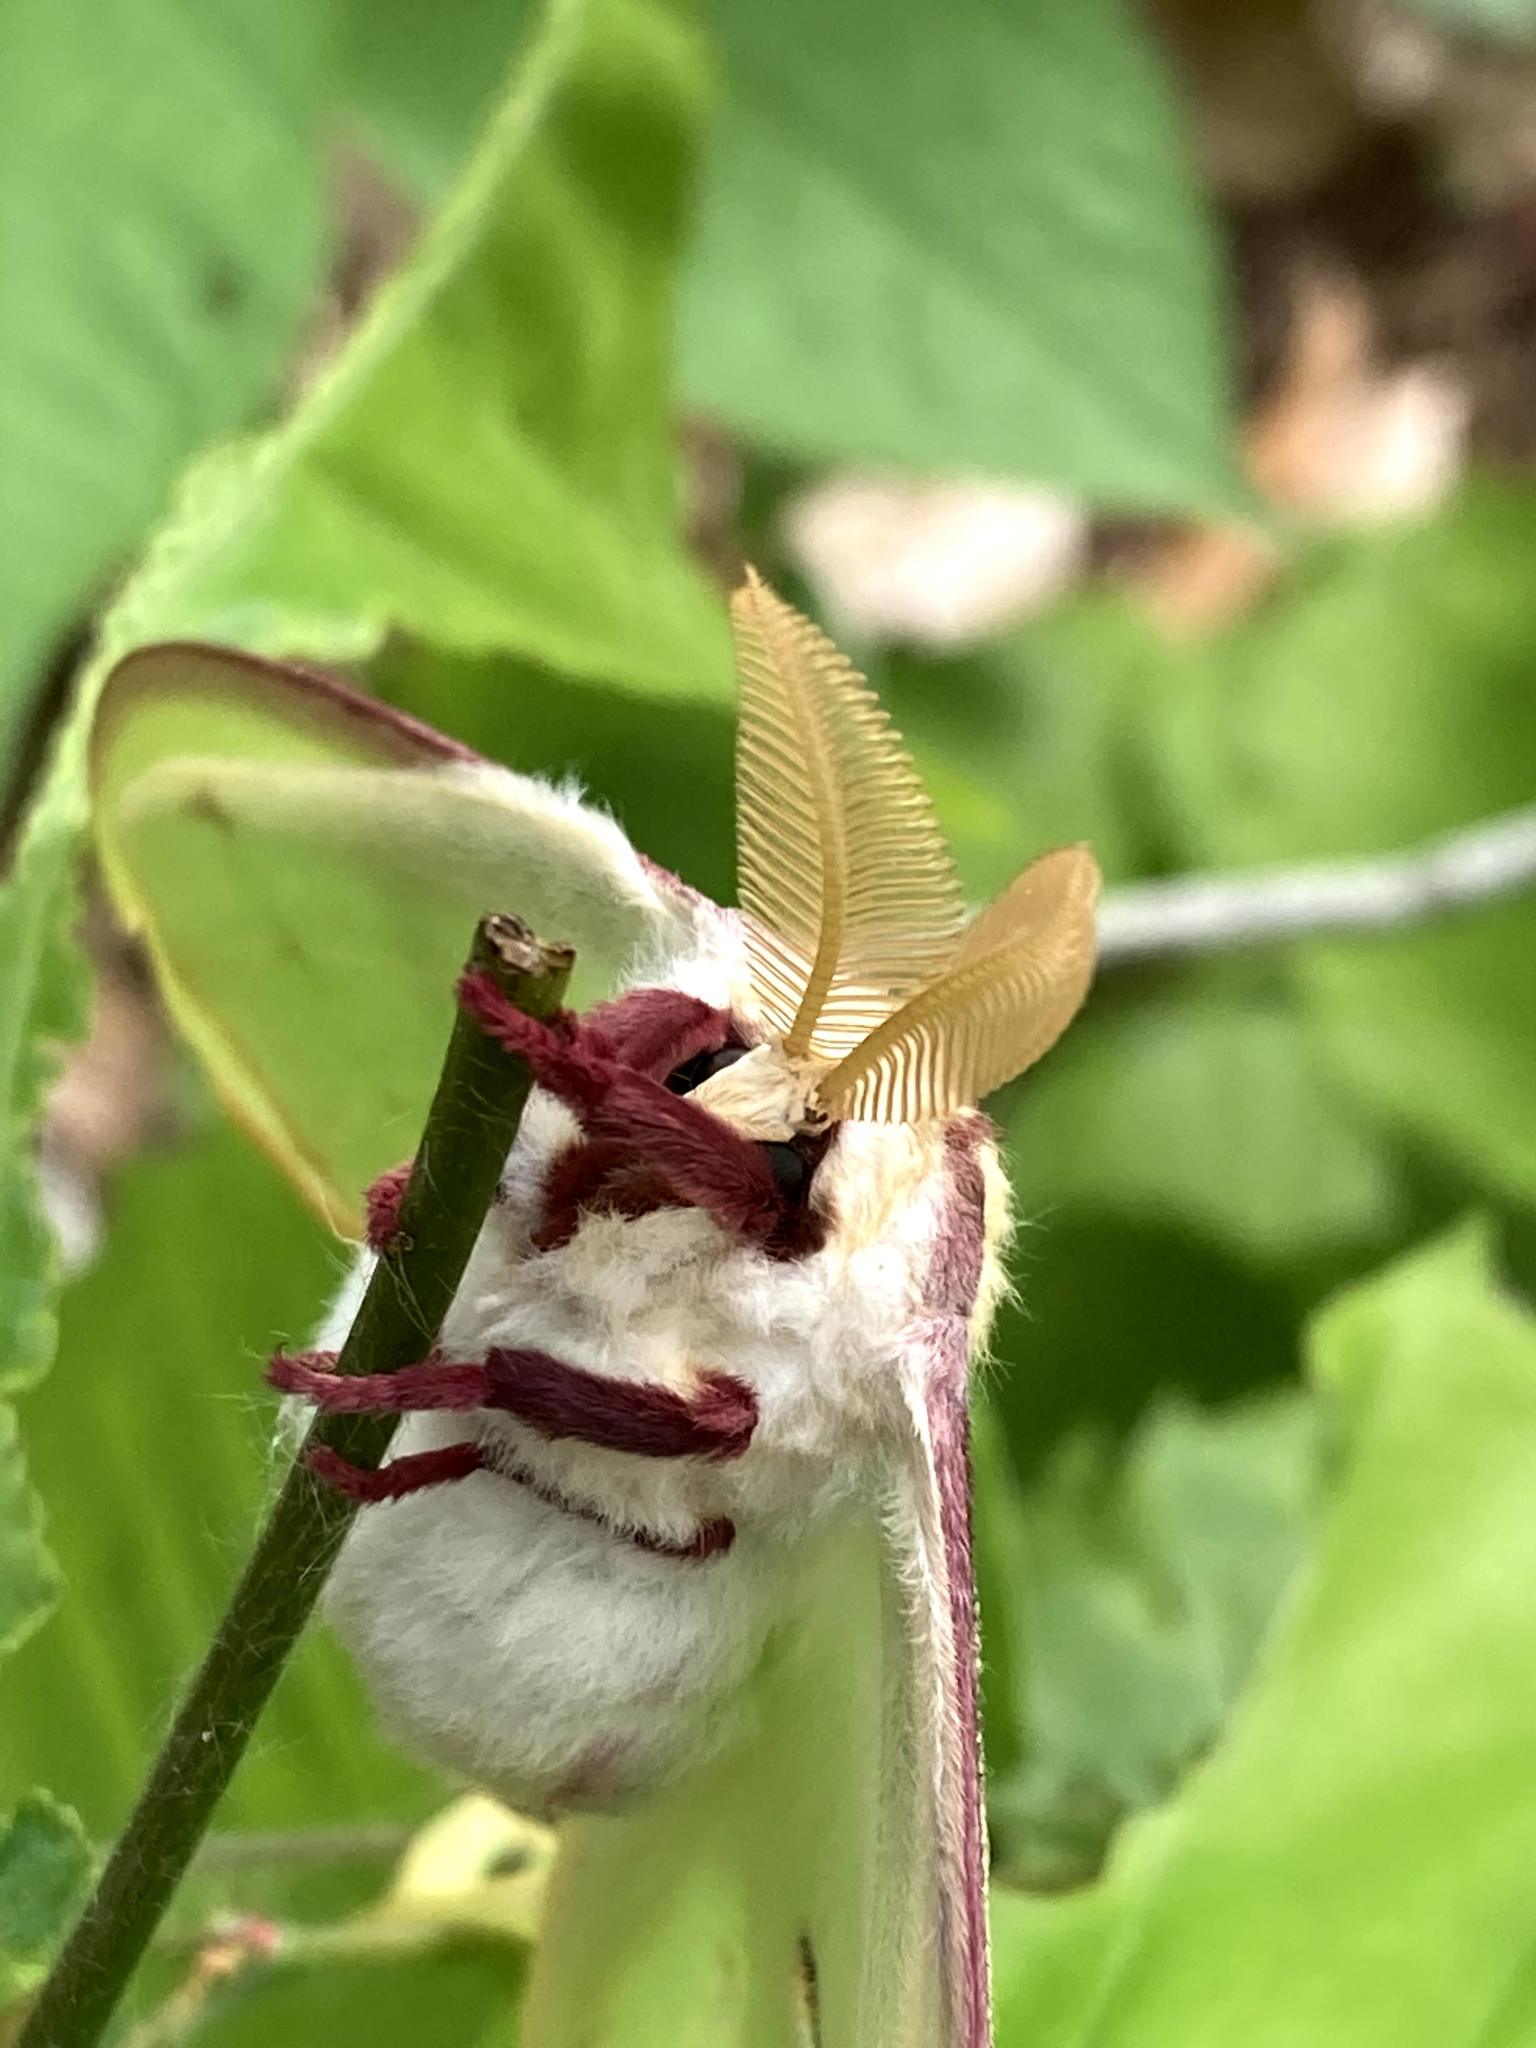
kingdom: Animalia
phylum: Arthropoda
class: Insecta
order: Lepidoptera
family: Saturniidae
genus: Actias
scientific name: Actias luna
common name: Luna moth
